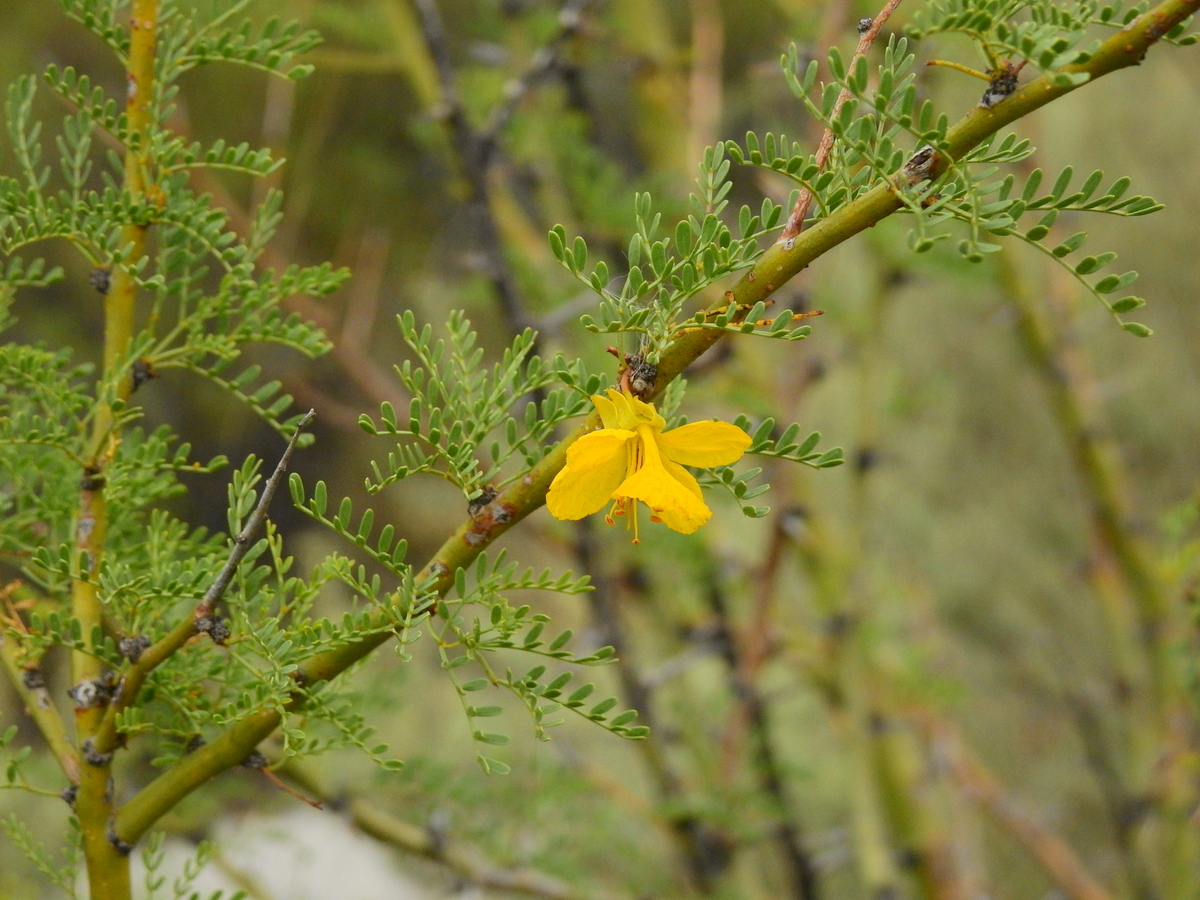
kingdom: Plantae
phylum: Tracheophyta
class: Magnoliopsida
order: Fabales
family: Fabaceae
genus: Parkinsonia
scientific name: Parkinsonia praecox
